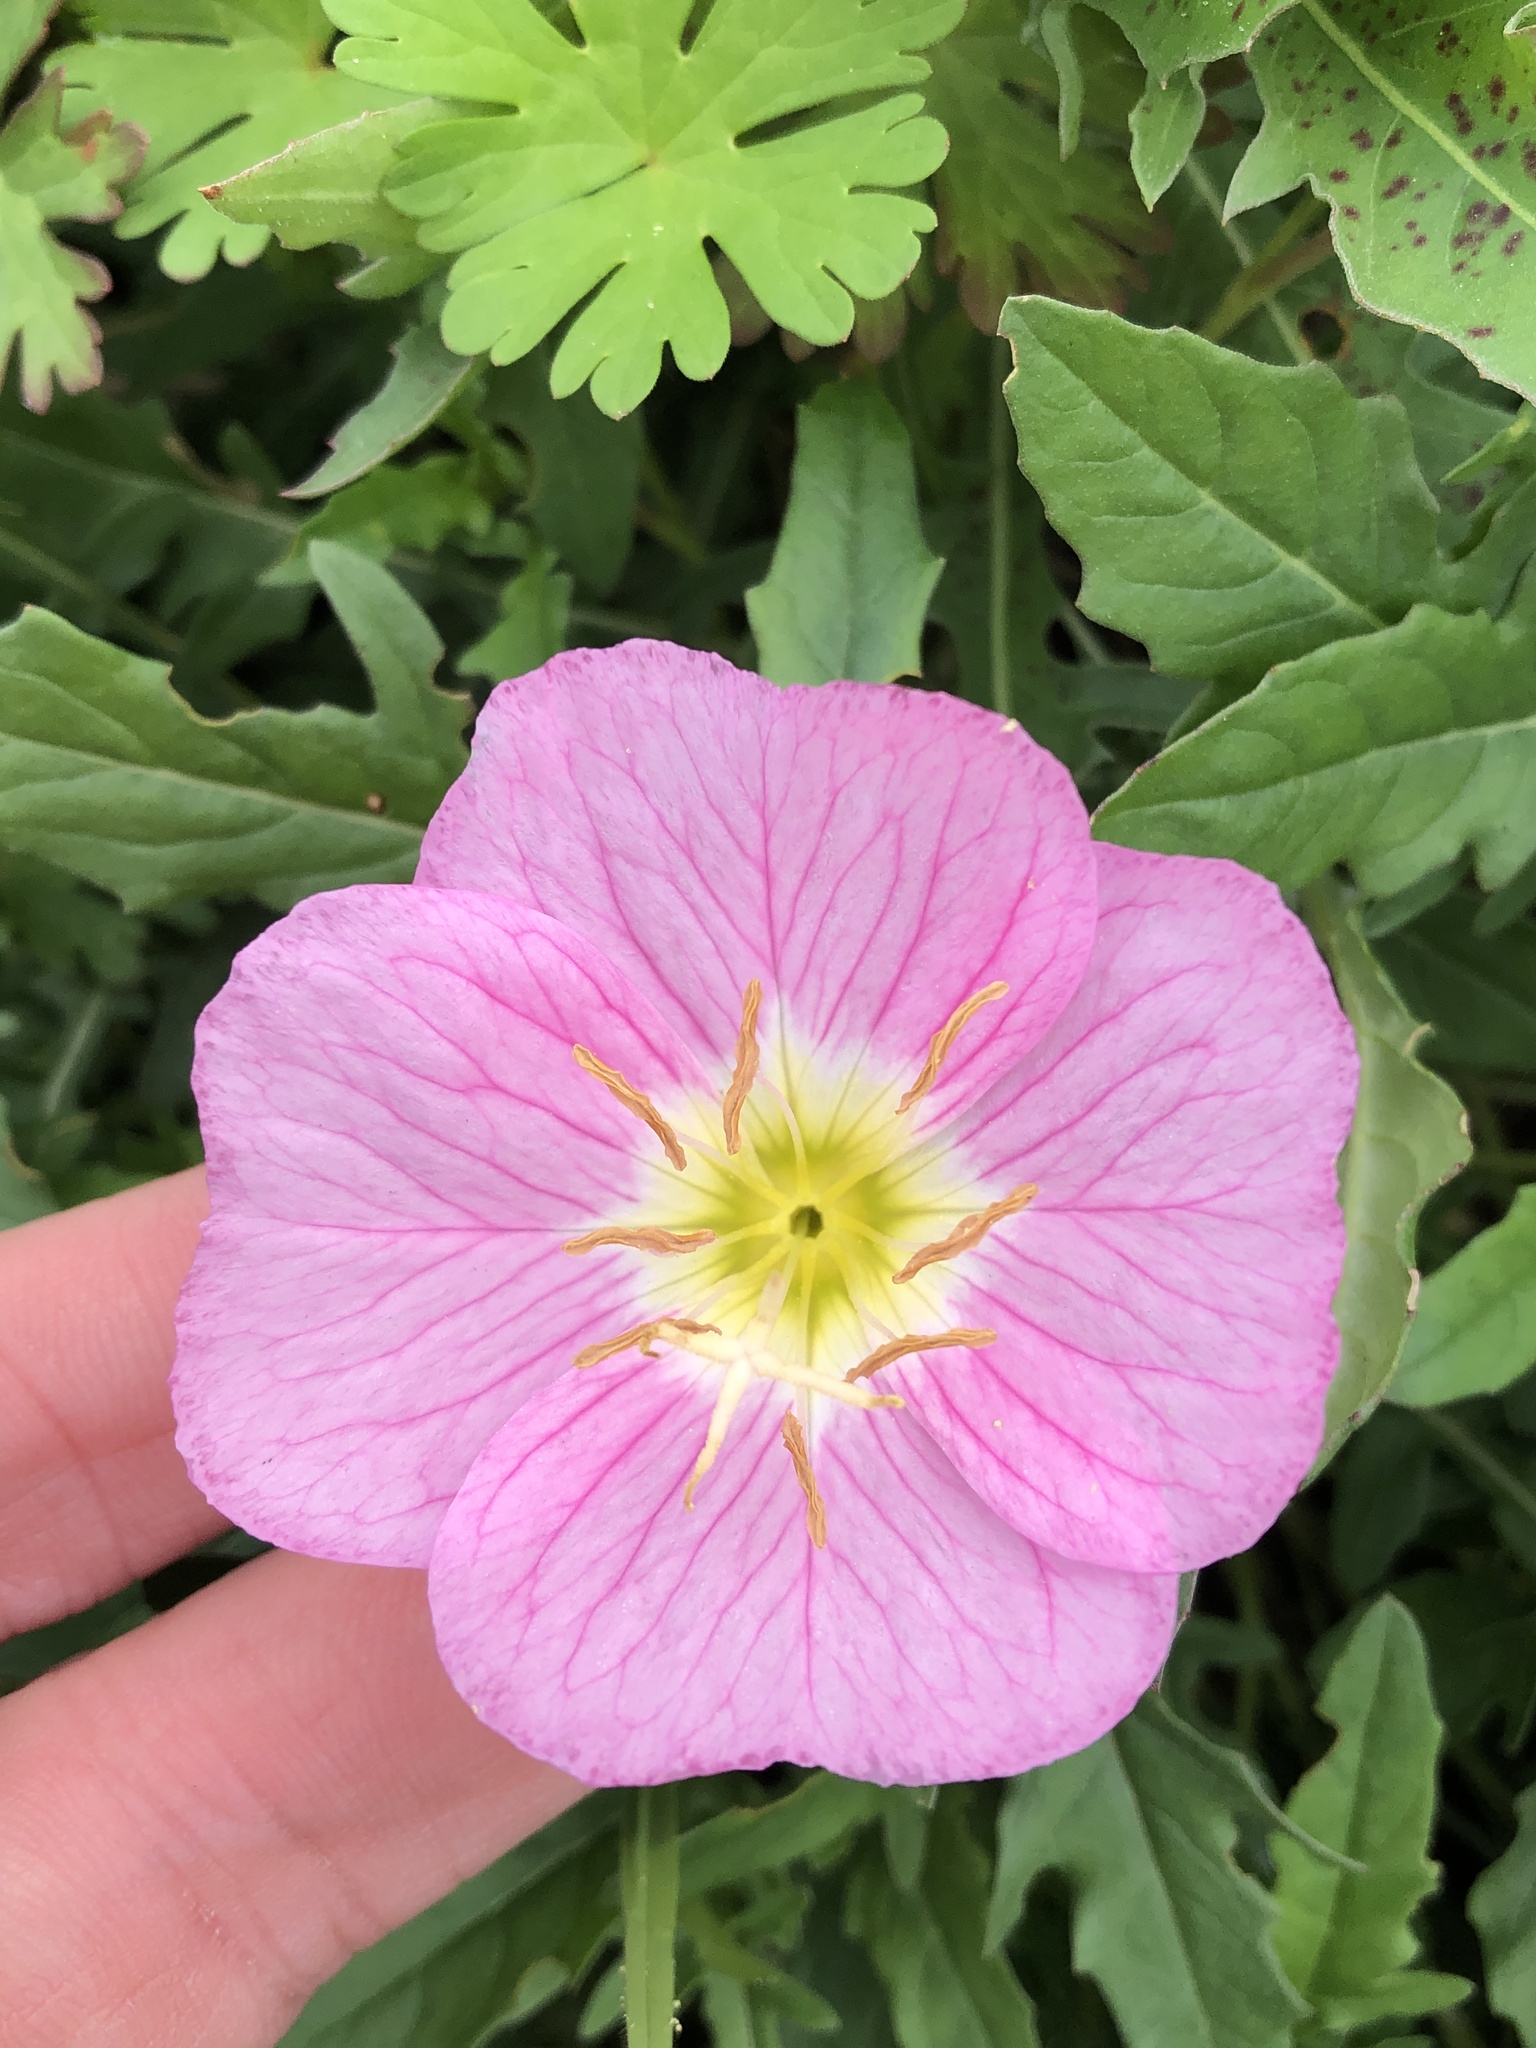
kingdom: Plantae
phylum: Tracheophyta
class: Magnoliopsida
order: Myrtales
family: Onagraceae
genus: Oenothera
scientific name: Oenothera speciosa
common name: White evening-primrose
